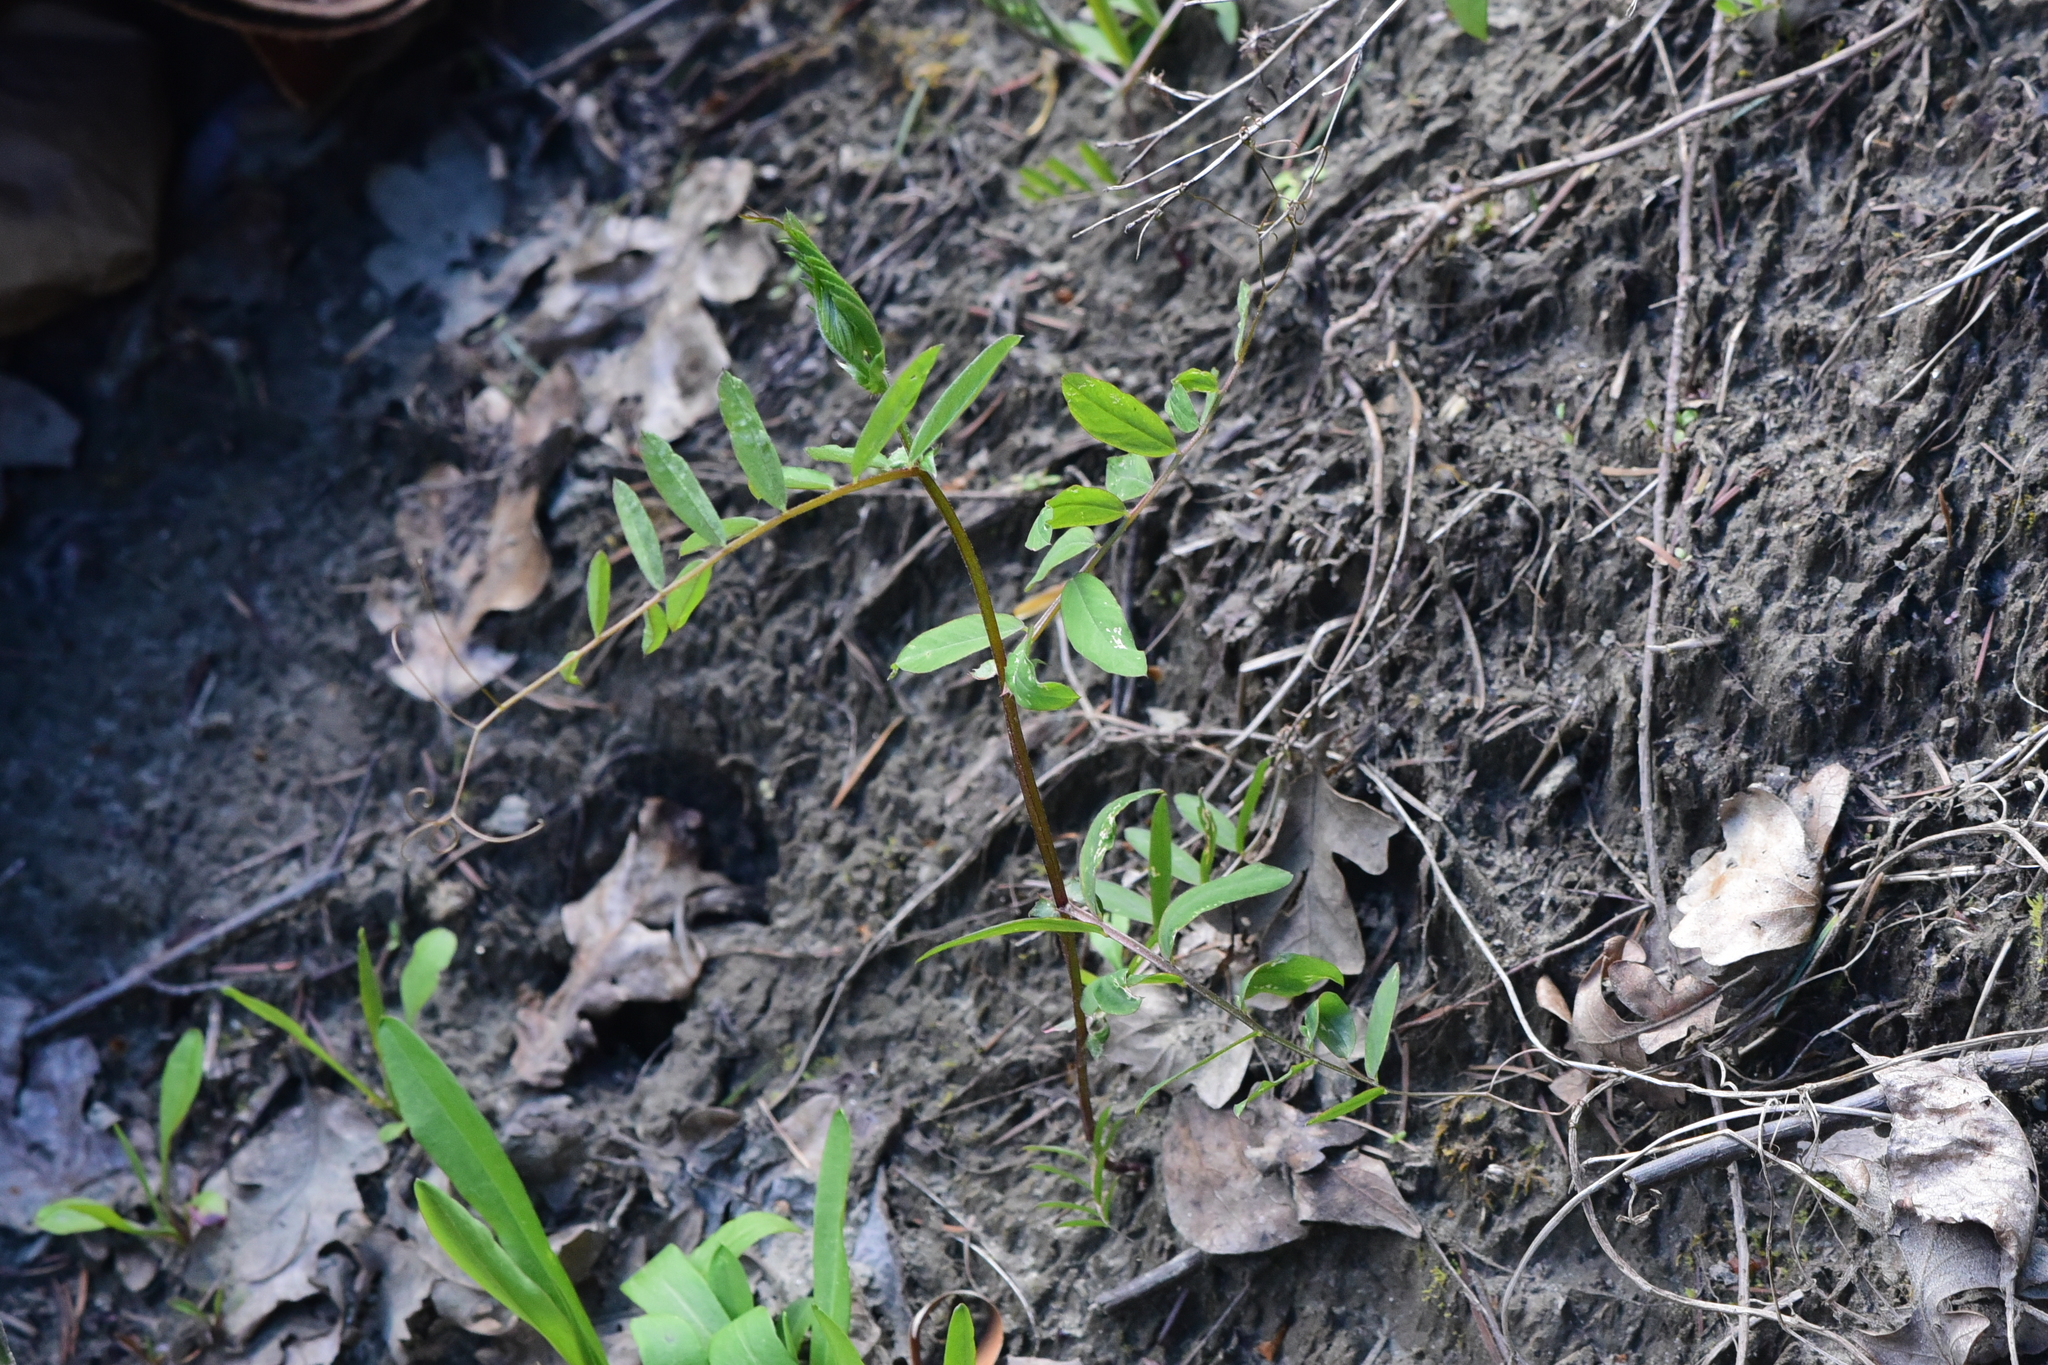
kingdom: Plantae
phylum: Tracheophyta
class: Magnoliopsida
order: Fabales
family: Fabaceae
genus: Vicia
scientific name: Vicia americana
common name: American vetch
